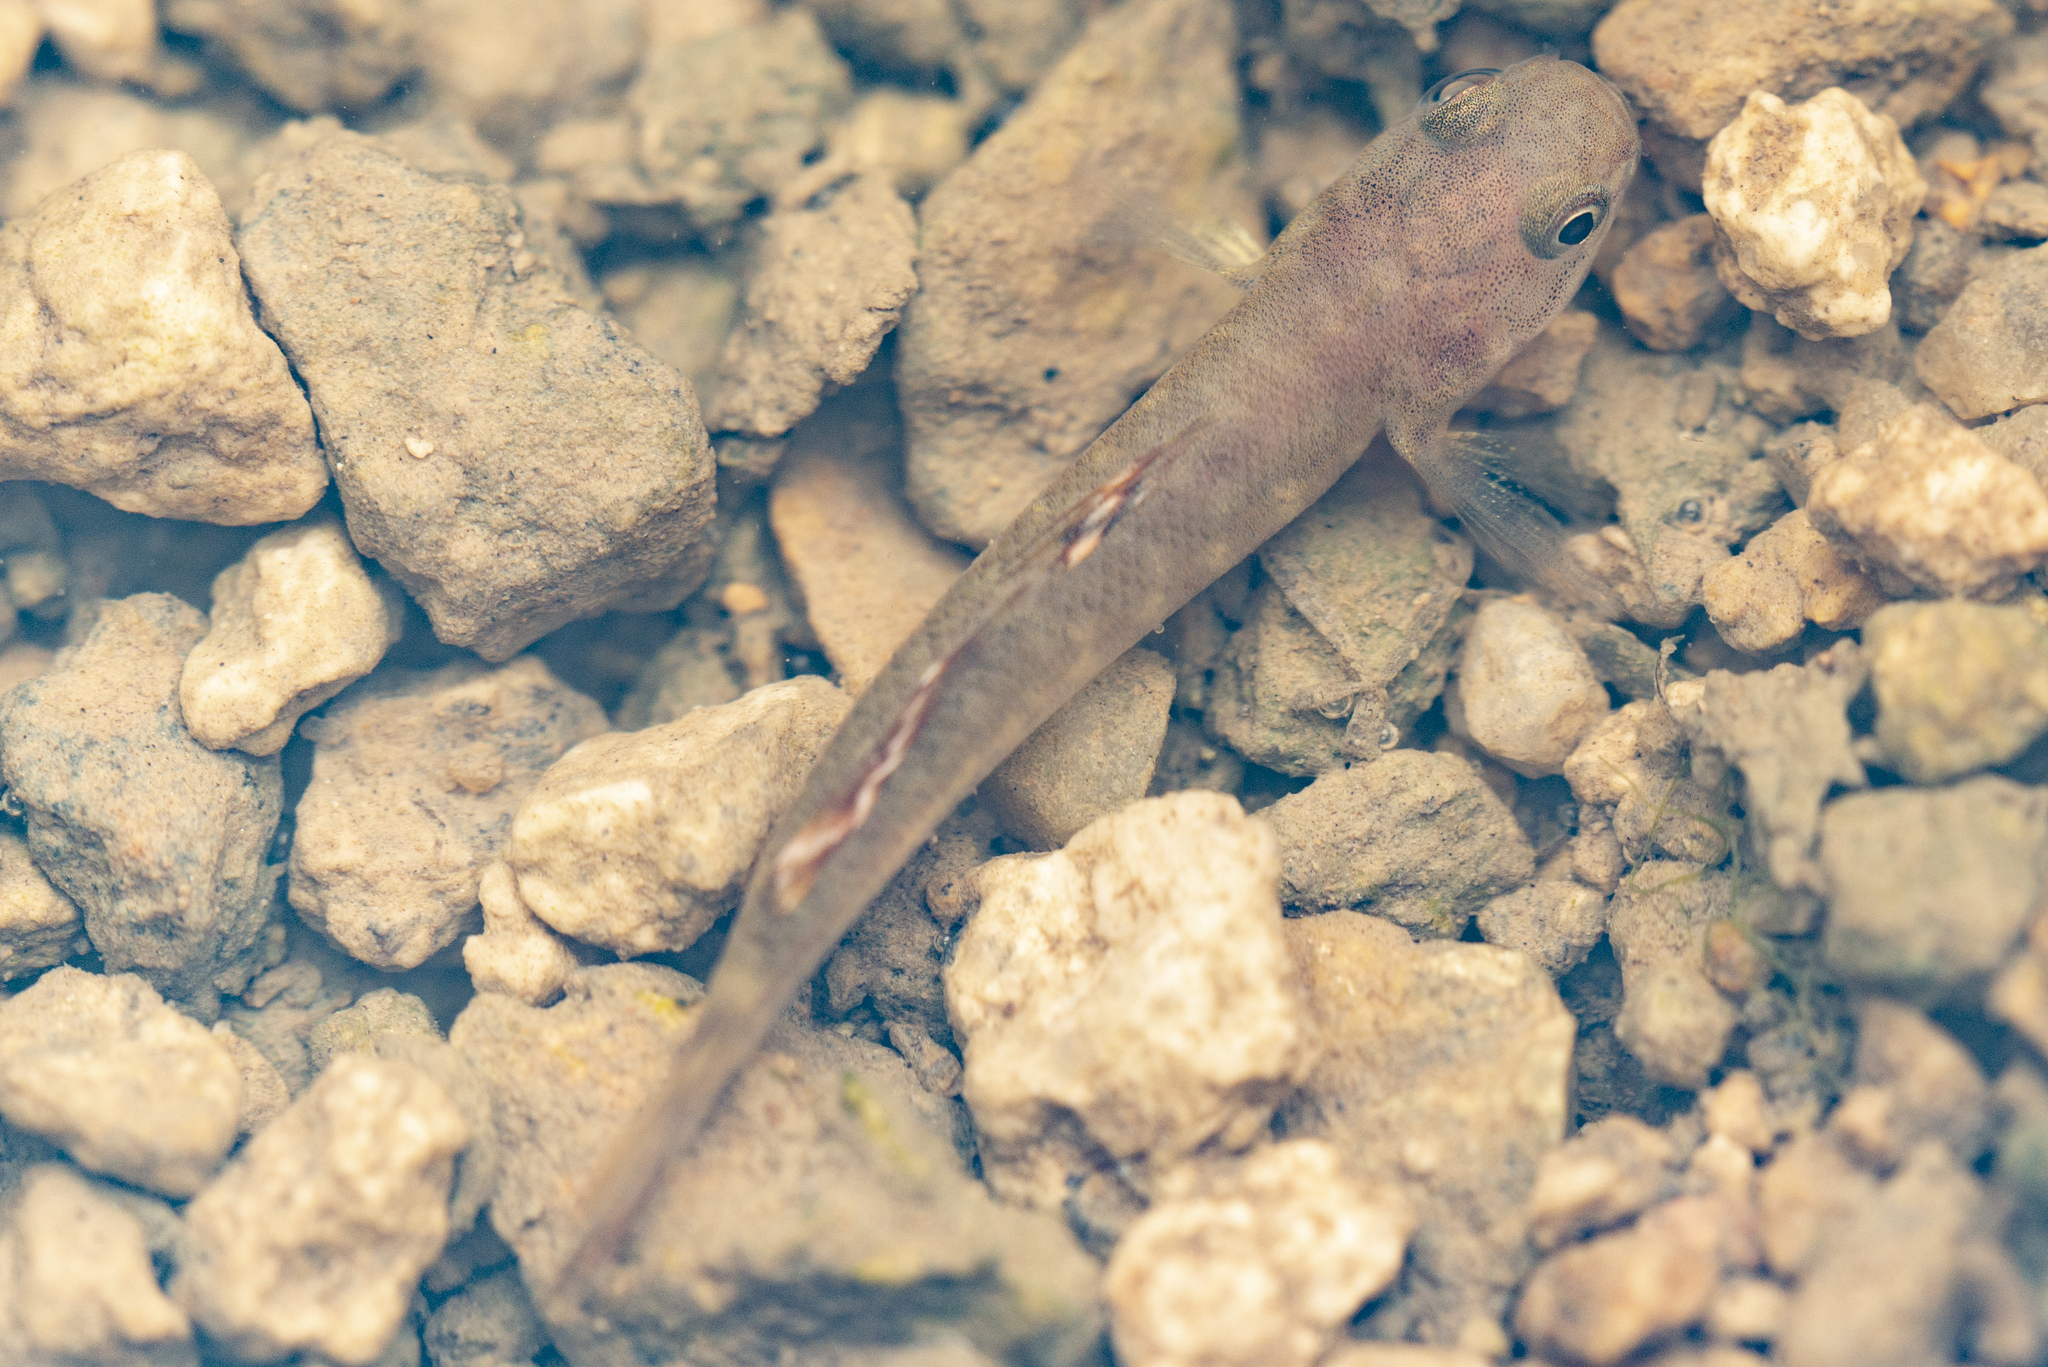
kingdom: Animalia
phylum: Chordata
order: Perciformes
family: Gobiidae
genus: Mugilogobius
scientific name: Mugilogobius abei
